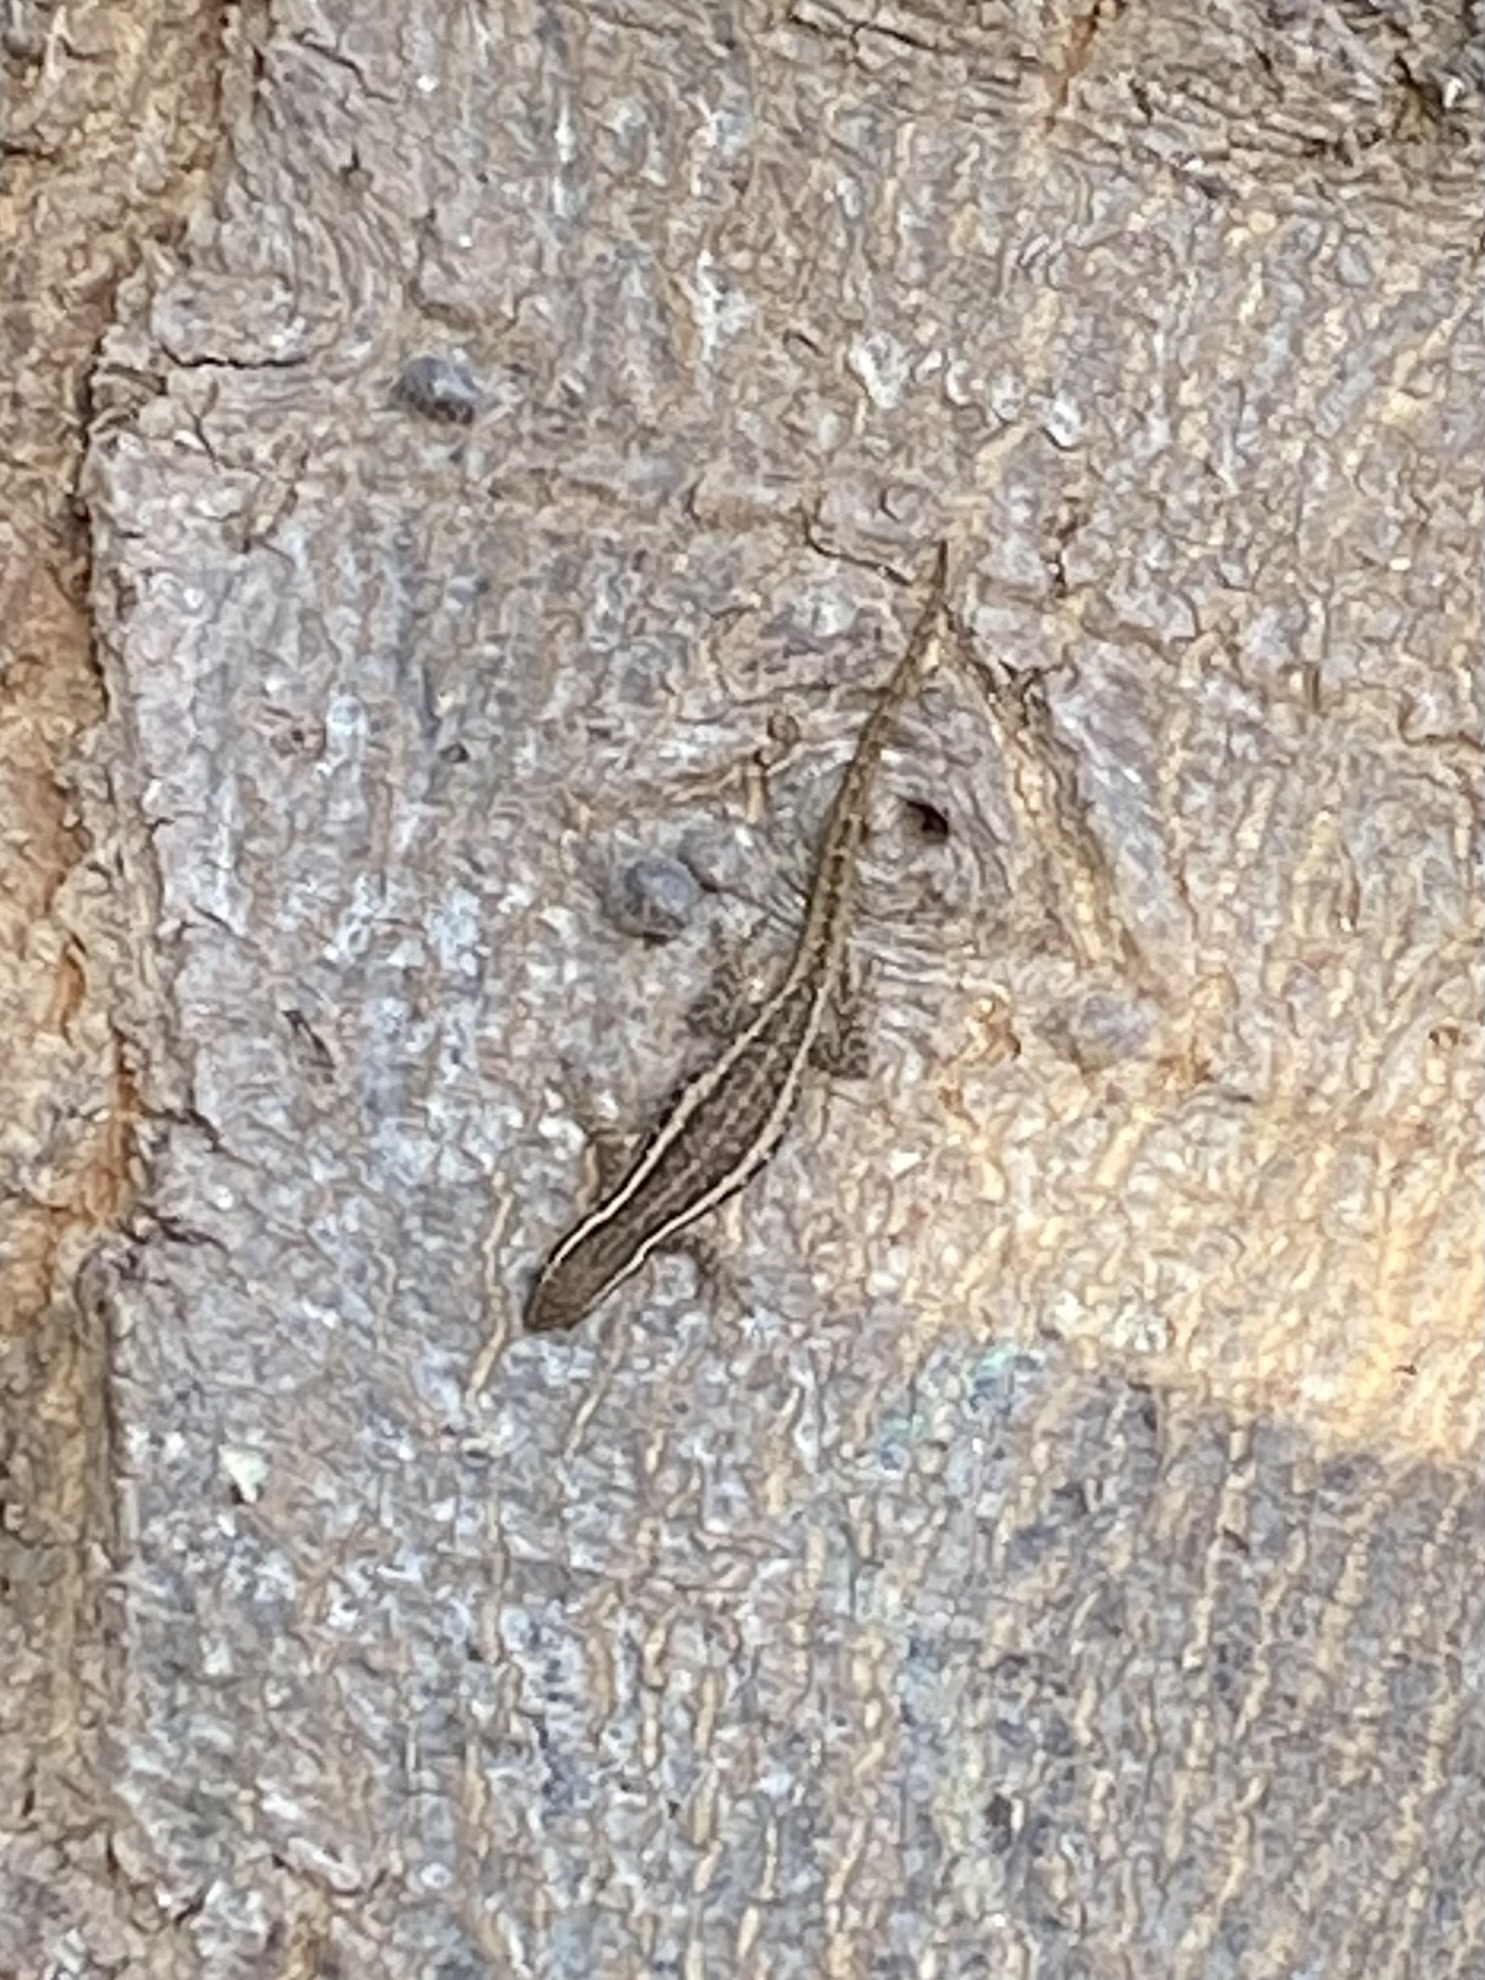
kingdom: Animalia
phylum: Chordata
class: Squamata
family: Gekkonidae
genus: Lygodactylus
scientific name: Lygodactylus capensis
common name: Cape dwarf gecko
